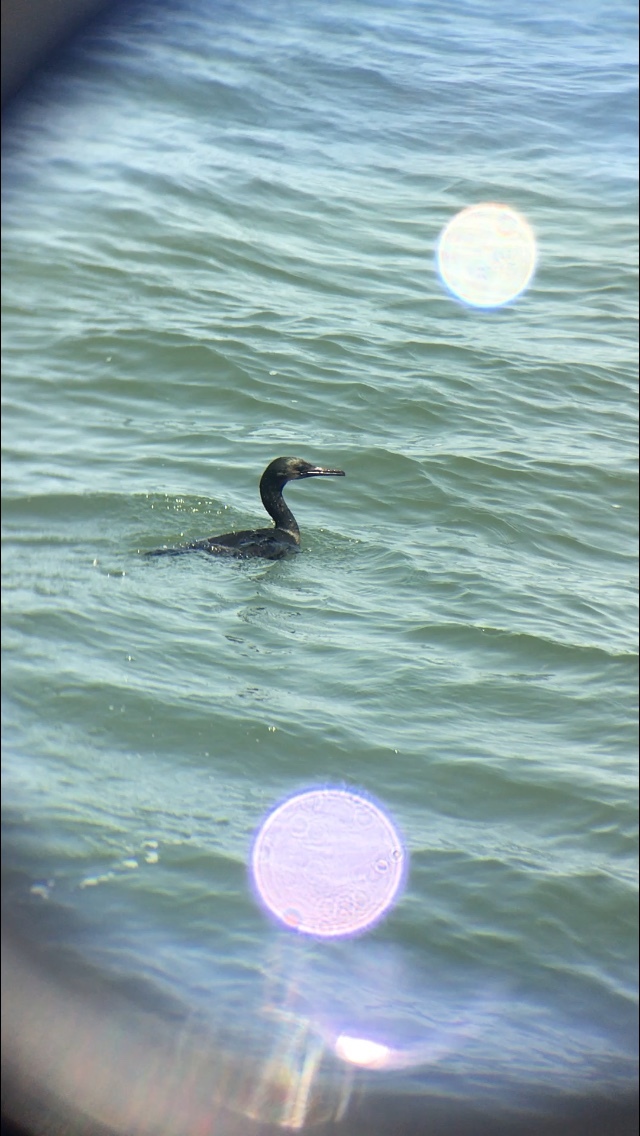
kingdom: Animalia
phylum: Chordata
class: Aves
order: Suliformes
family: Phalacrocoracidae
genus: Urile
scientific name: Urile penicillatus
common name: Brandt's cormorant
